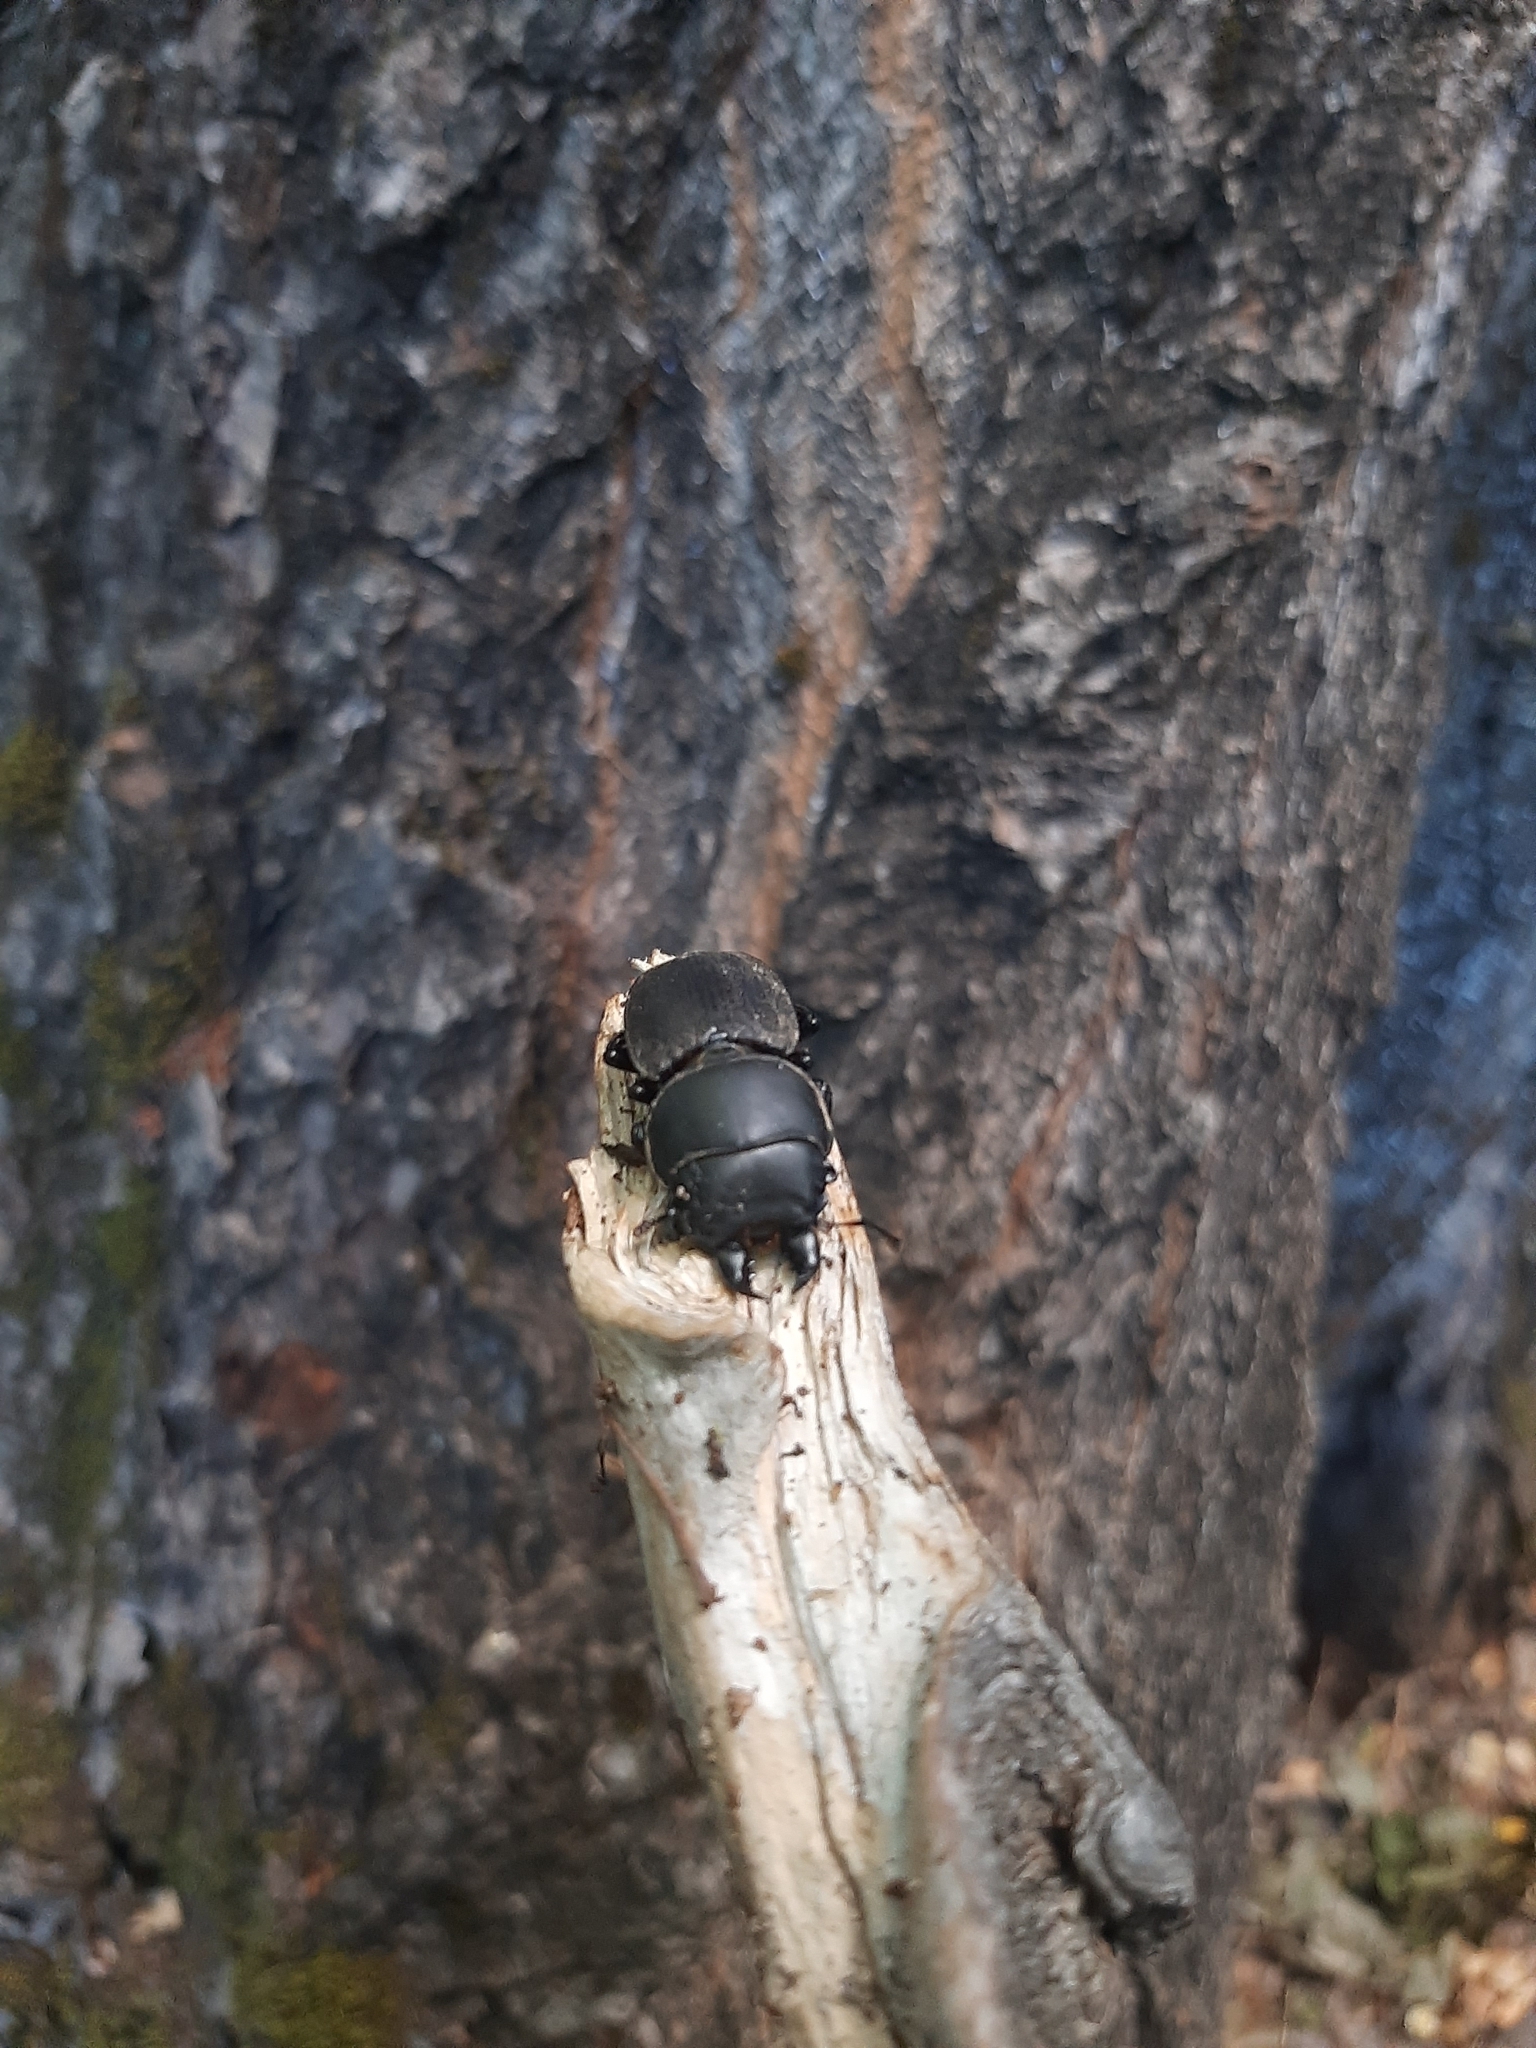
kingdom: Animalia
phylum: Arthropoda
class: Insecta
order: Coleoptera
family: Lucanidae
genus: Apterodorcus
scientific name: Apterodorcus bacchus
